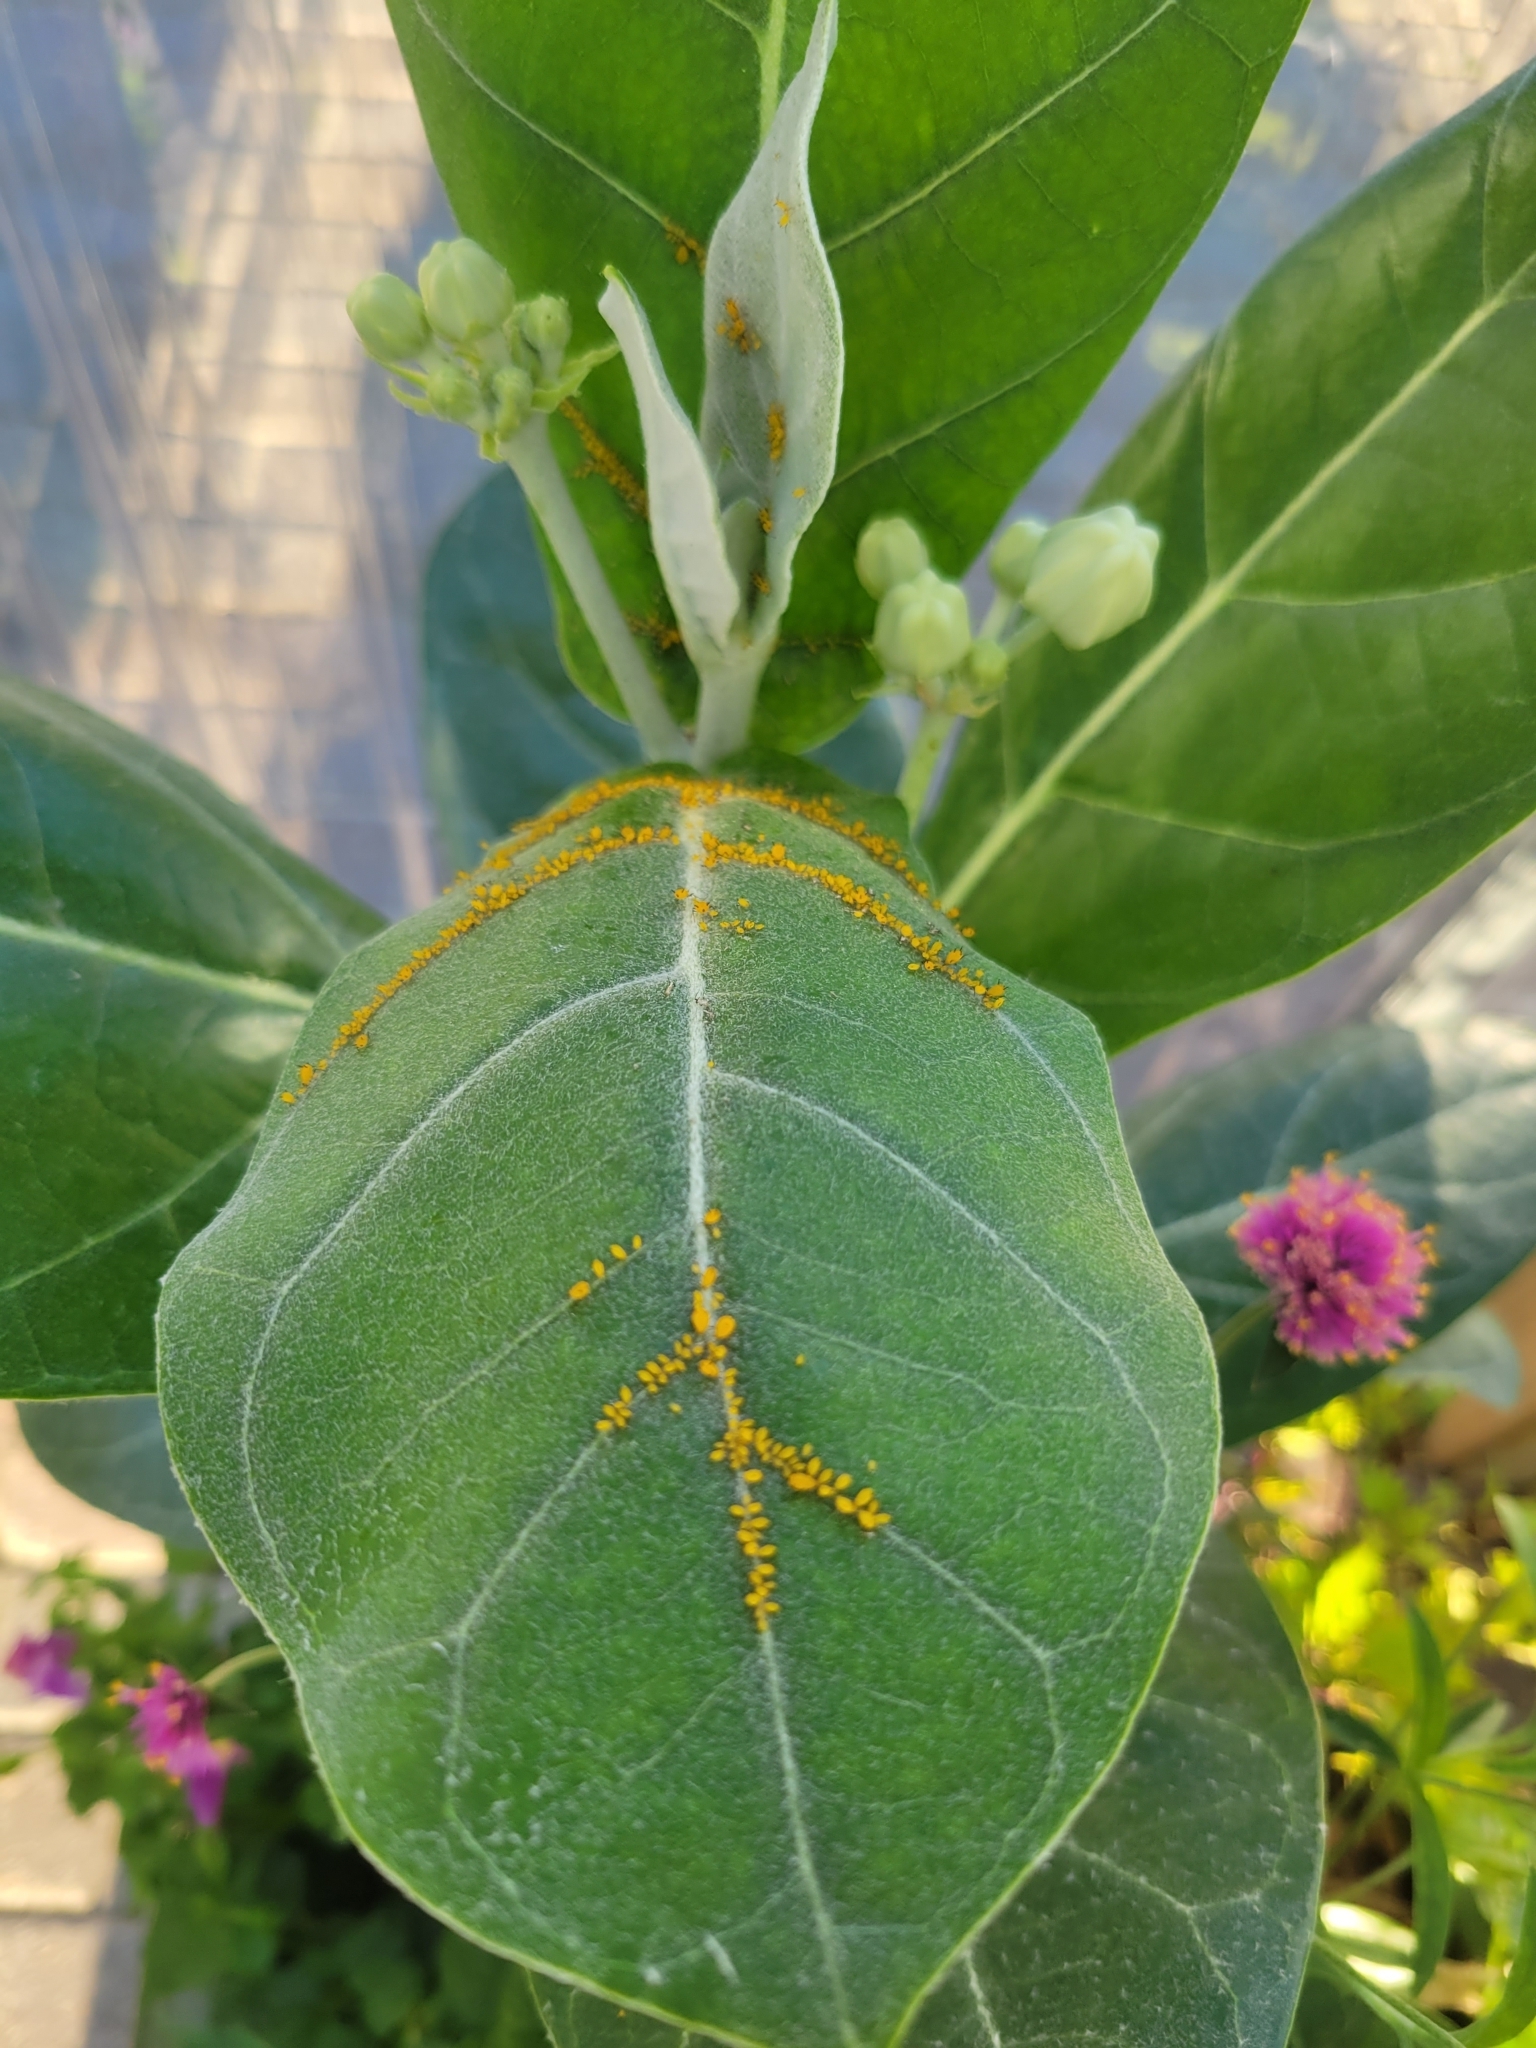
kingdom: Animalia
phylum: Arthropoda
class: Insecta
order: Hemiptera
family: Aphididae
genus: Aphis
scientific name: Aphis nerii
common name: Oleander aphid
